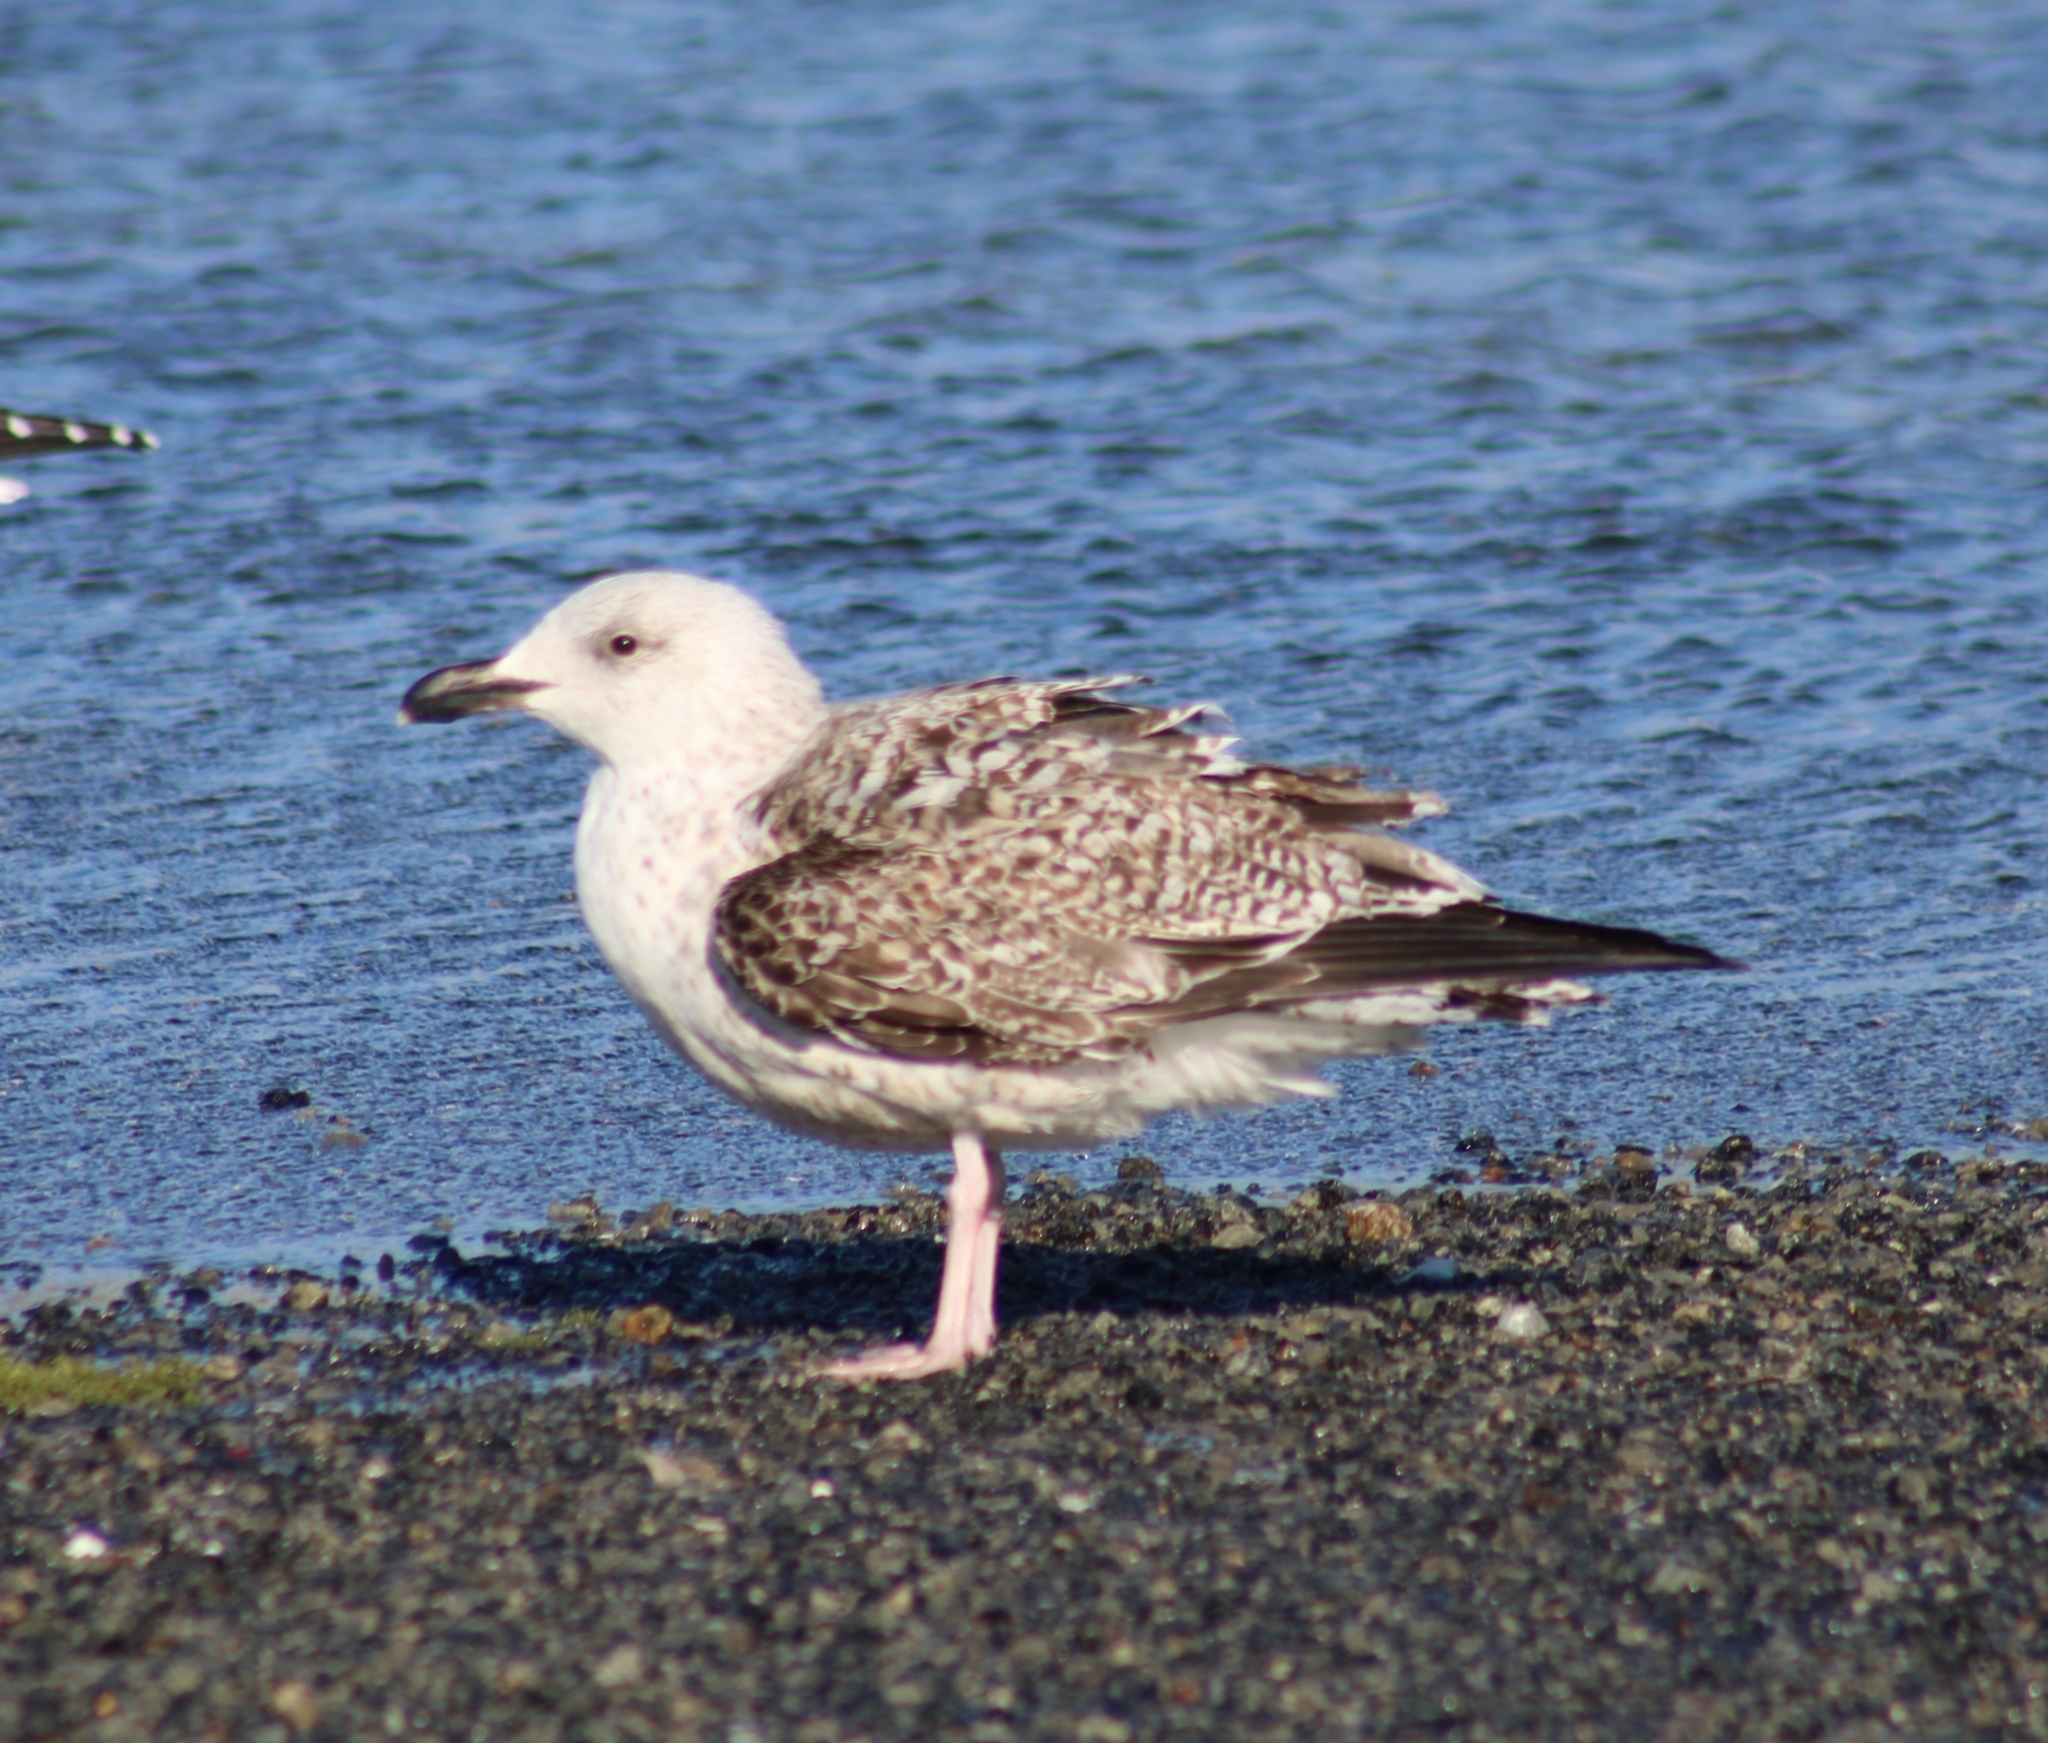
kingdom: Animalia
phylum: Chordata
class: Aves
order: Charadriiformes
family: Laridae
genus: Larus
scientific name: Larus marinus
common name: Great black-backed gull
